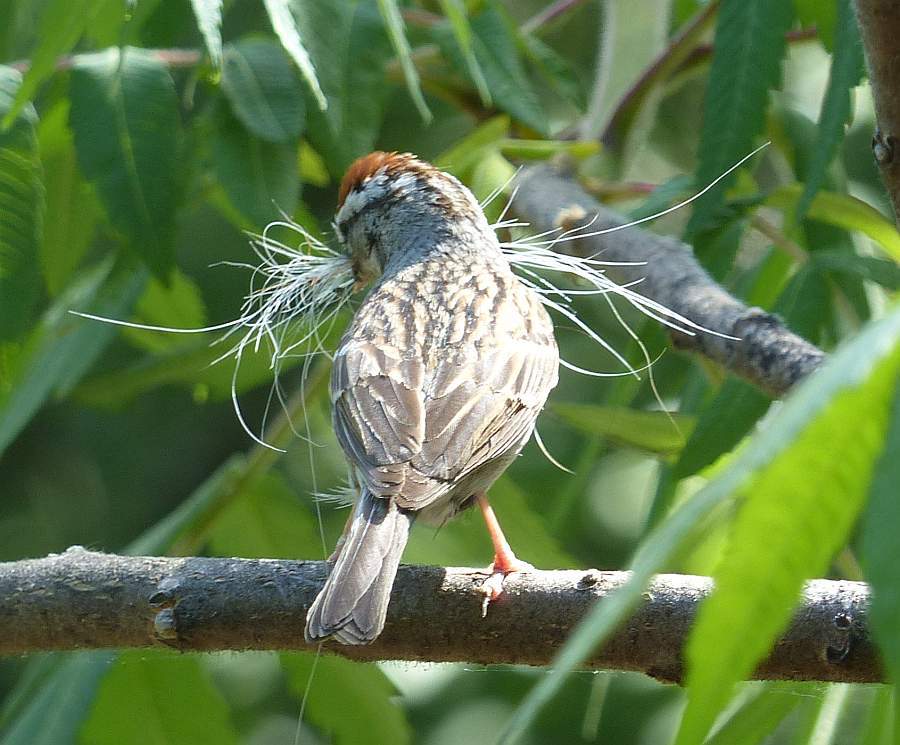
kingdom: Animalia
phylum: Chordata
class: Aves
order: Passeriformes
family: Passerellidae
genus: Spizella
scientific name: Spizella passerina
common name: Chipping sparrow
